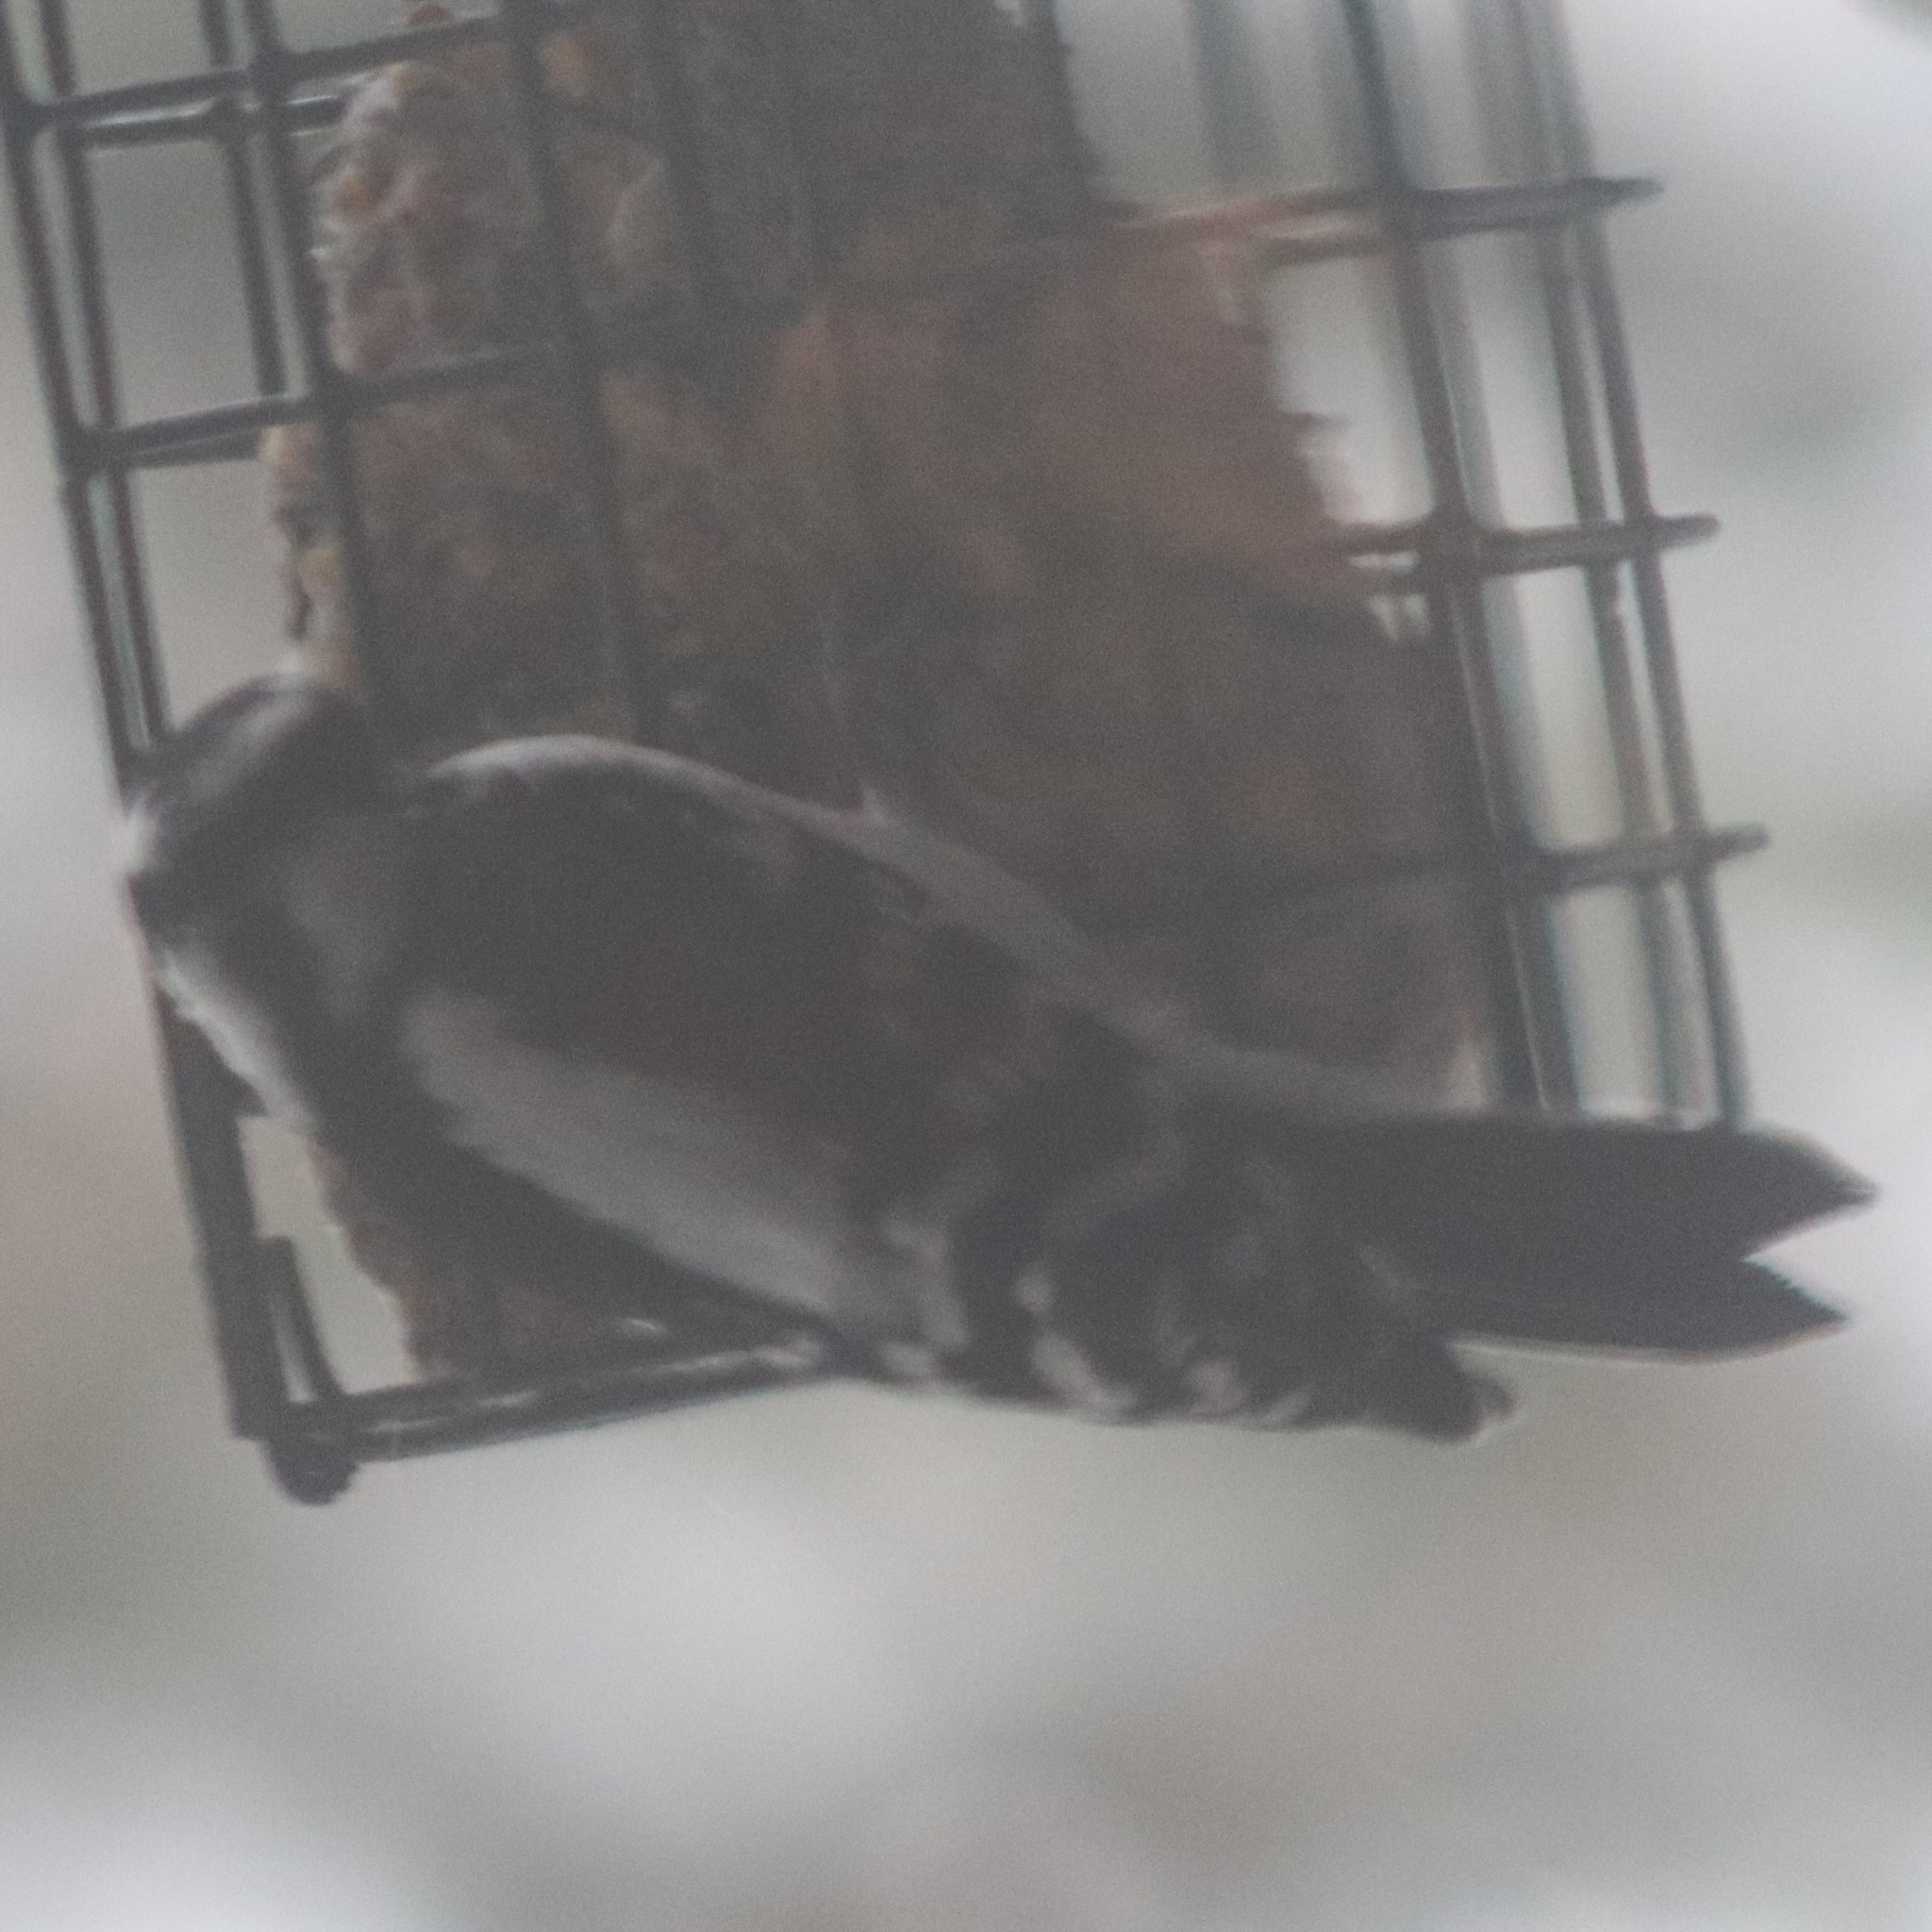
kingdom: Animalia
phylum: Chordata
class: Aves
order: Piciformes
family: Picidae
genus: Dryobates
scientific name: Dryobates pubescens
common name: Downy woodpecker
